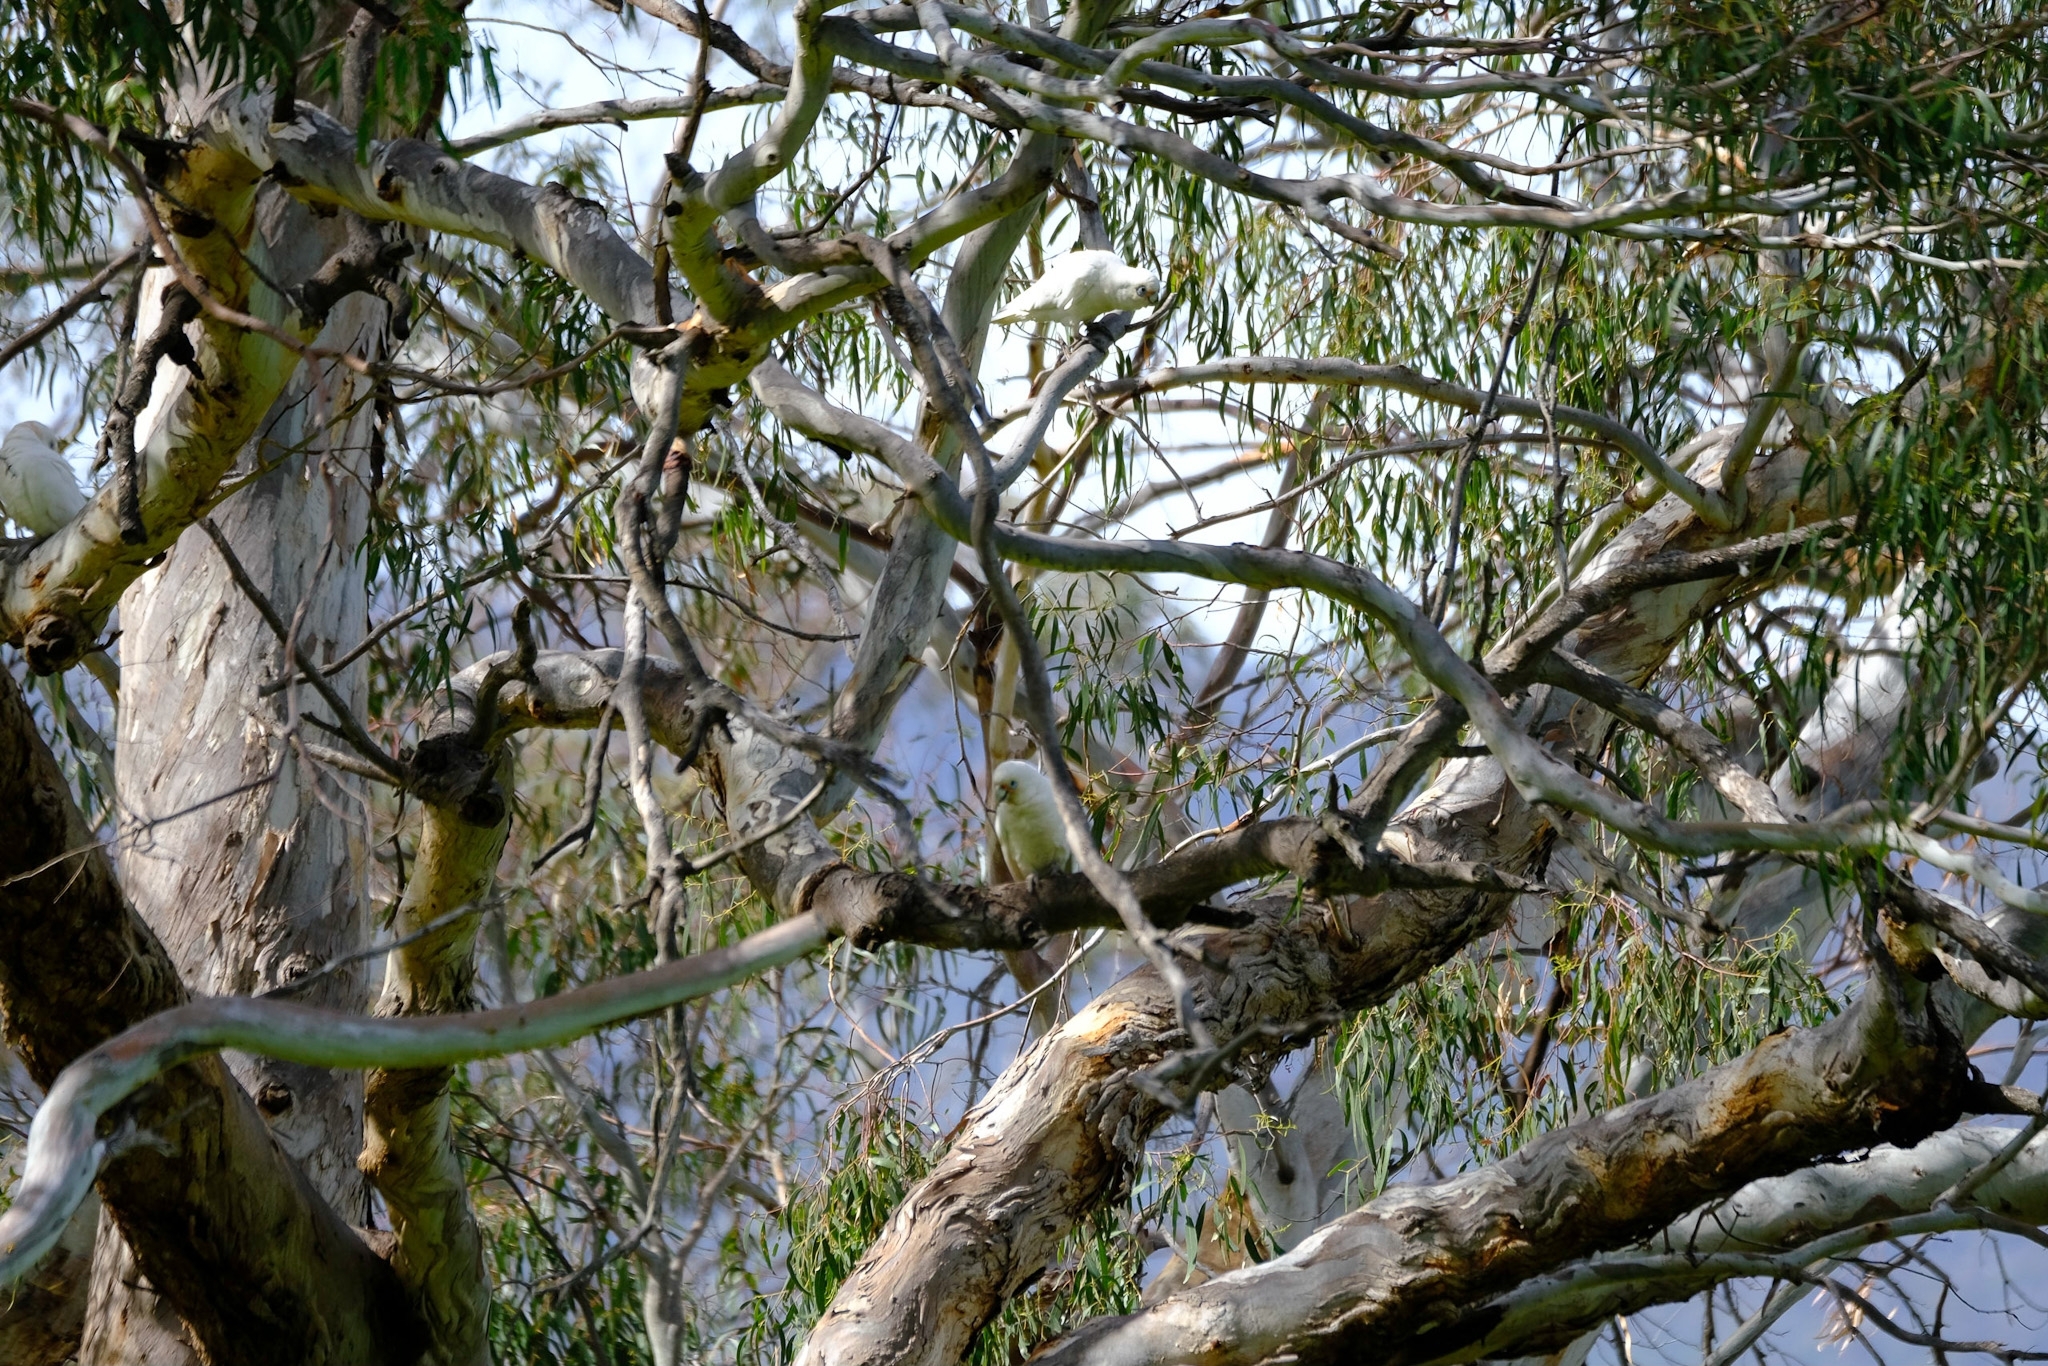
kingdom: Animalia
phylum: Chordata
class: Aves
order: Psittaciformes
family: Psittacidae
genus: Cacatua
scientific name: Cacatua sanguinea
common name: Little corella
